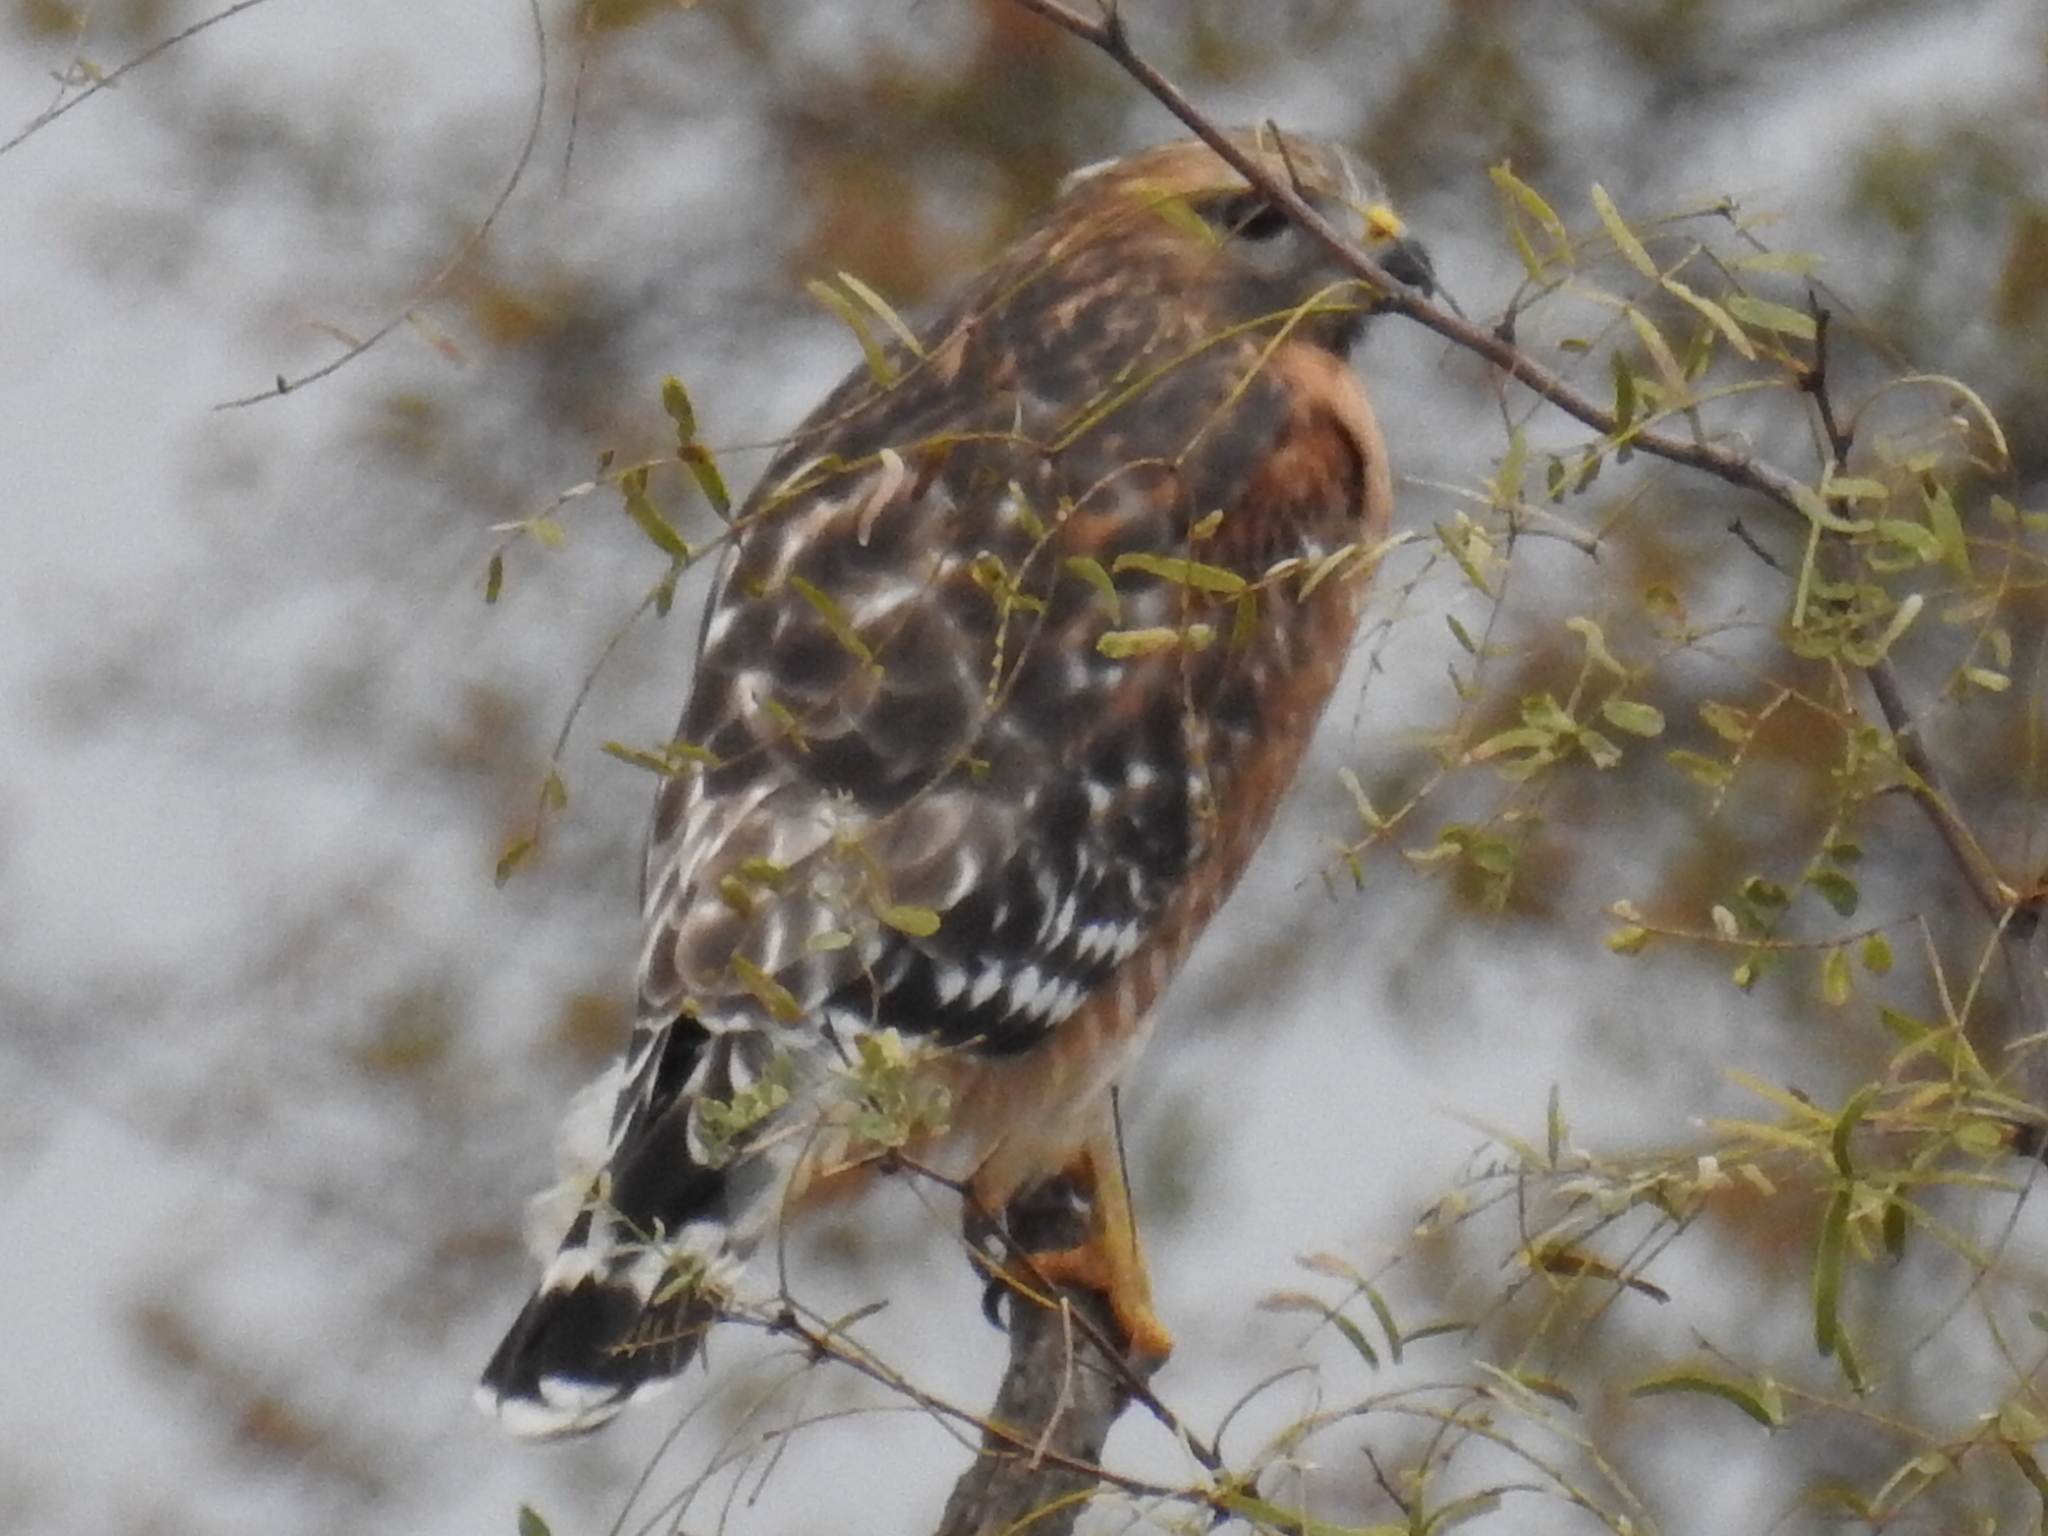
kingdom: Animalia
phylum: Chordata
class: Aves
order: Accipitriformes
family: Accipitridae
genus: Buteo
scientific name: Buteo lineatus
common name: Red-shouldered hawk
